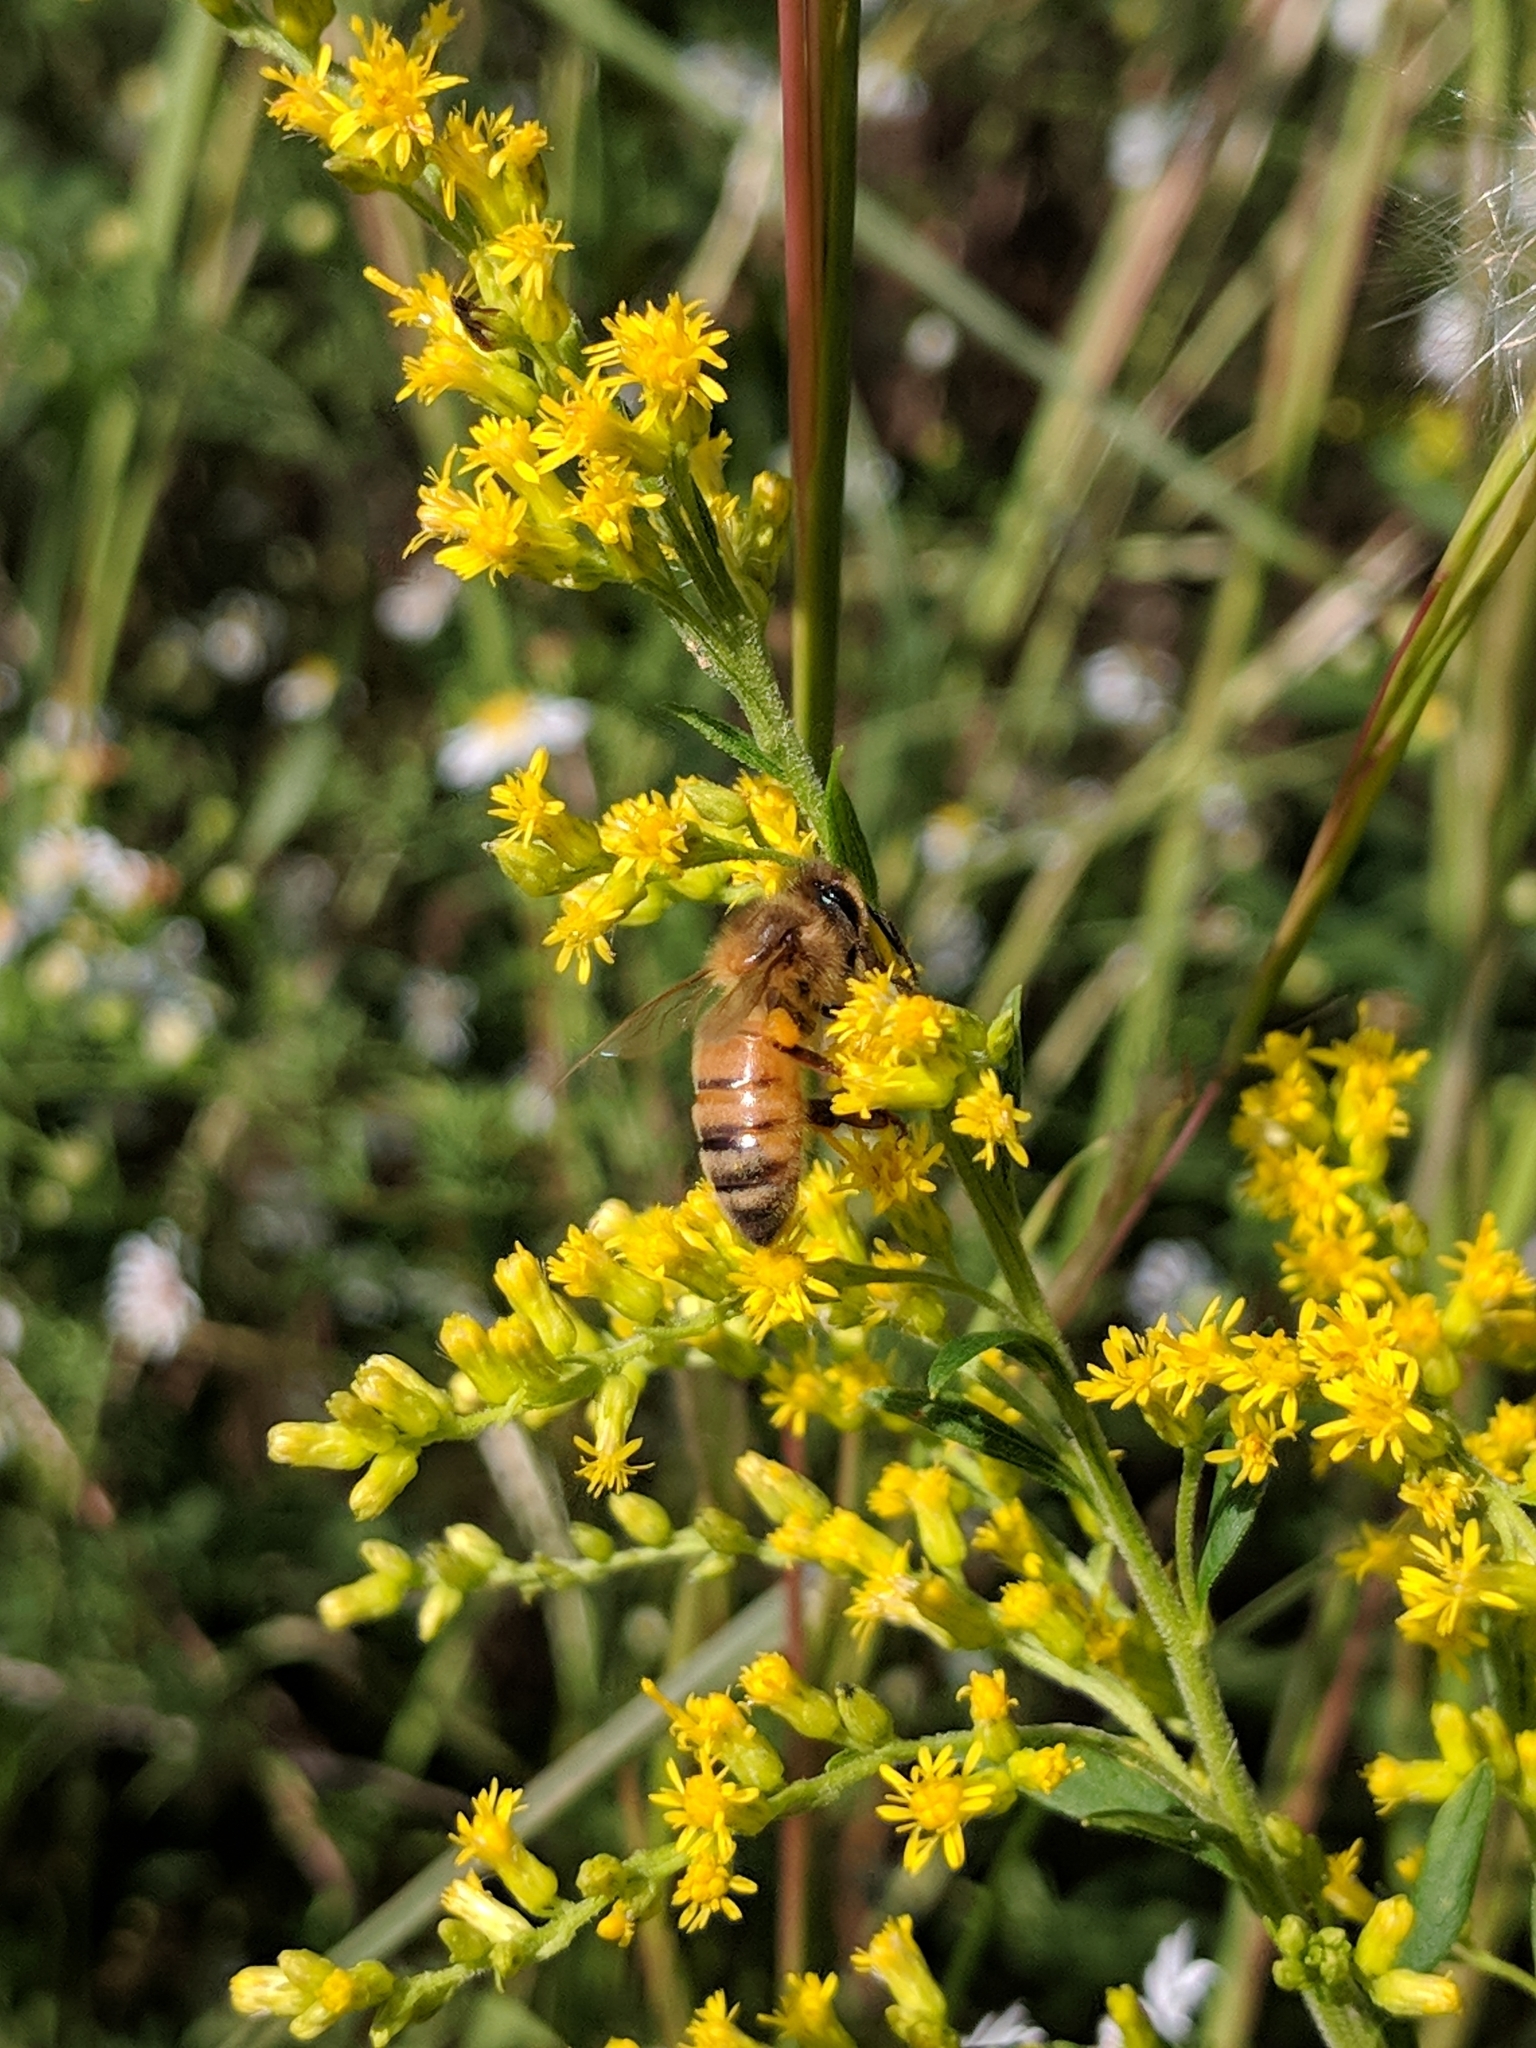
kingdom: Animalia
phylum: Arthropoda
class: Insecta
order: Hymenoptera
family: Apidae
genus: Apis
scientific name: Apis mellifera
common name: Honey bee
